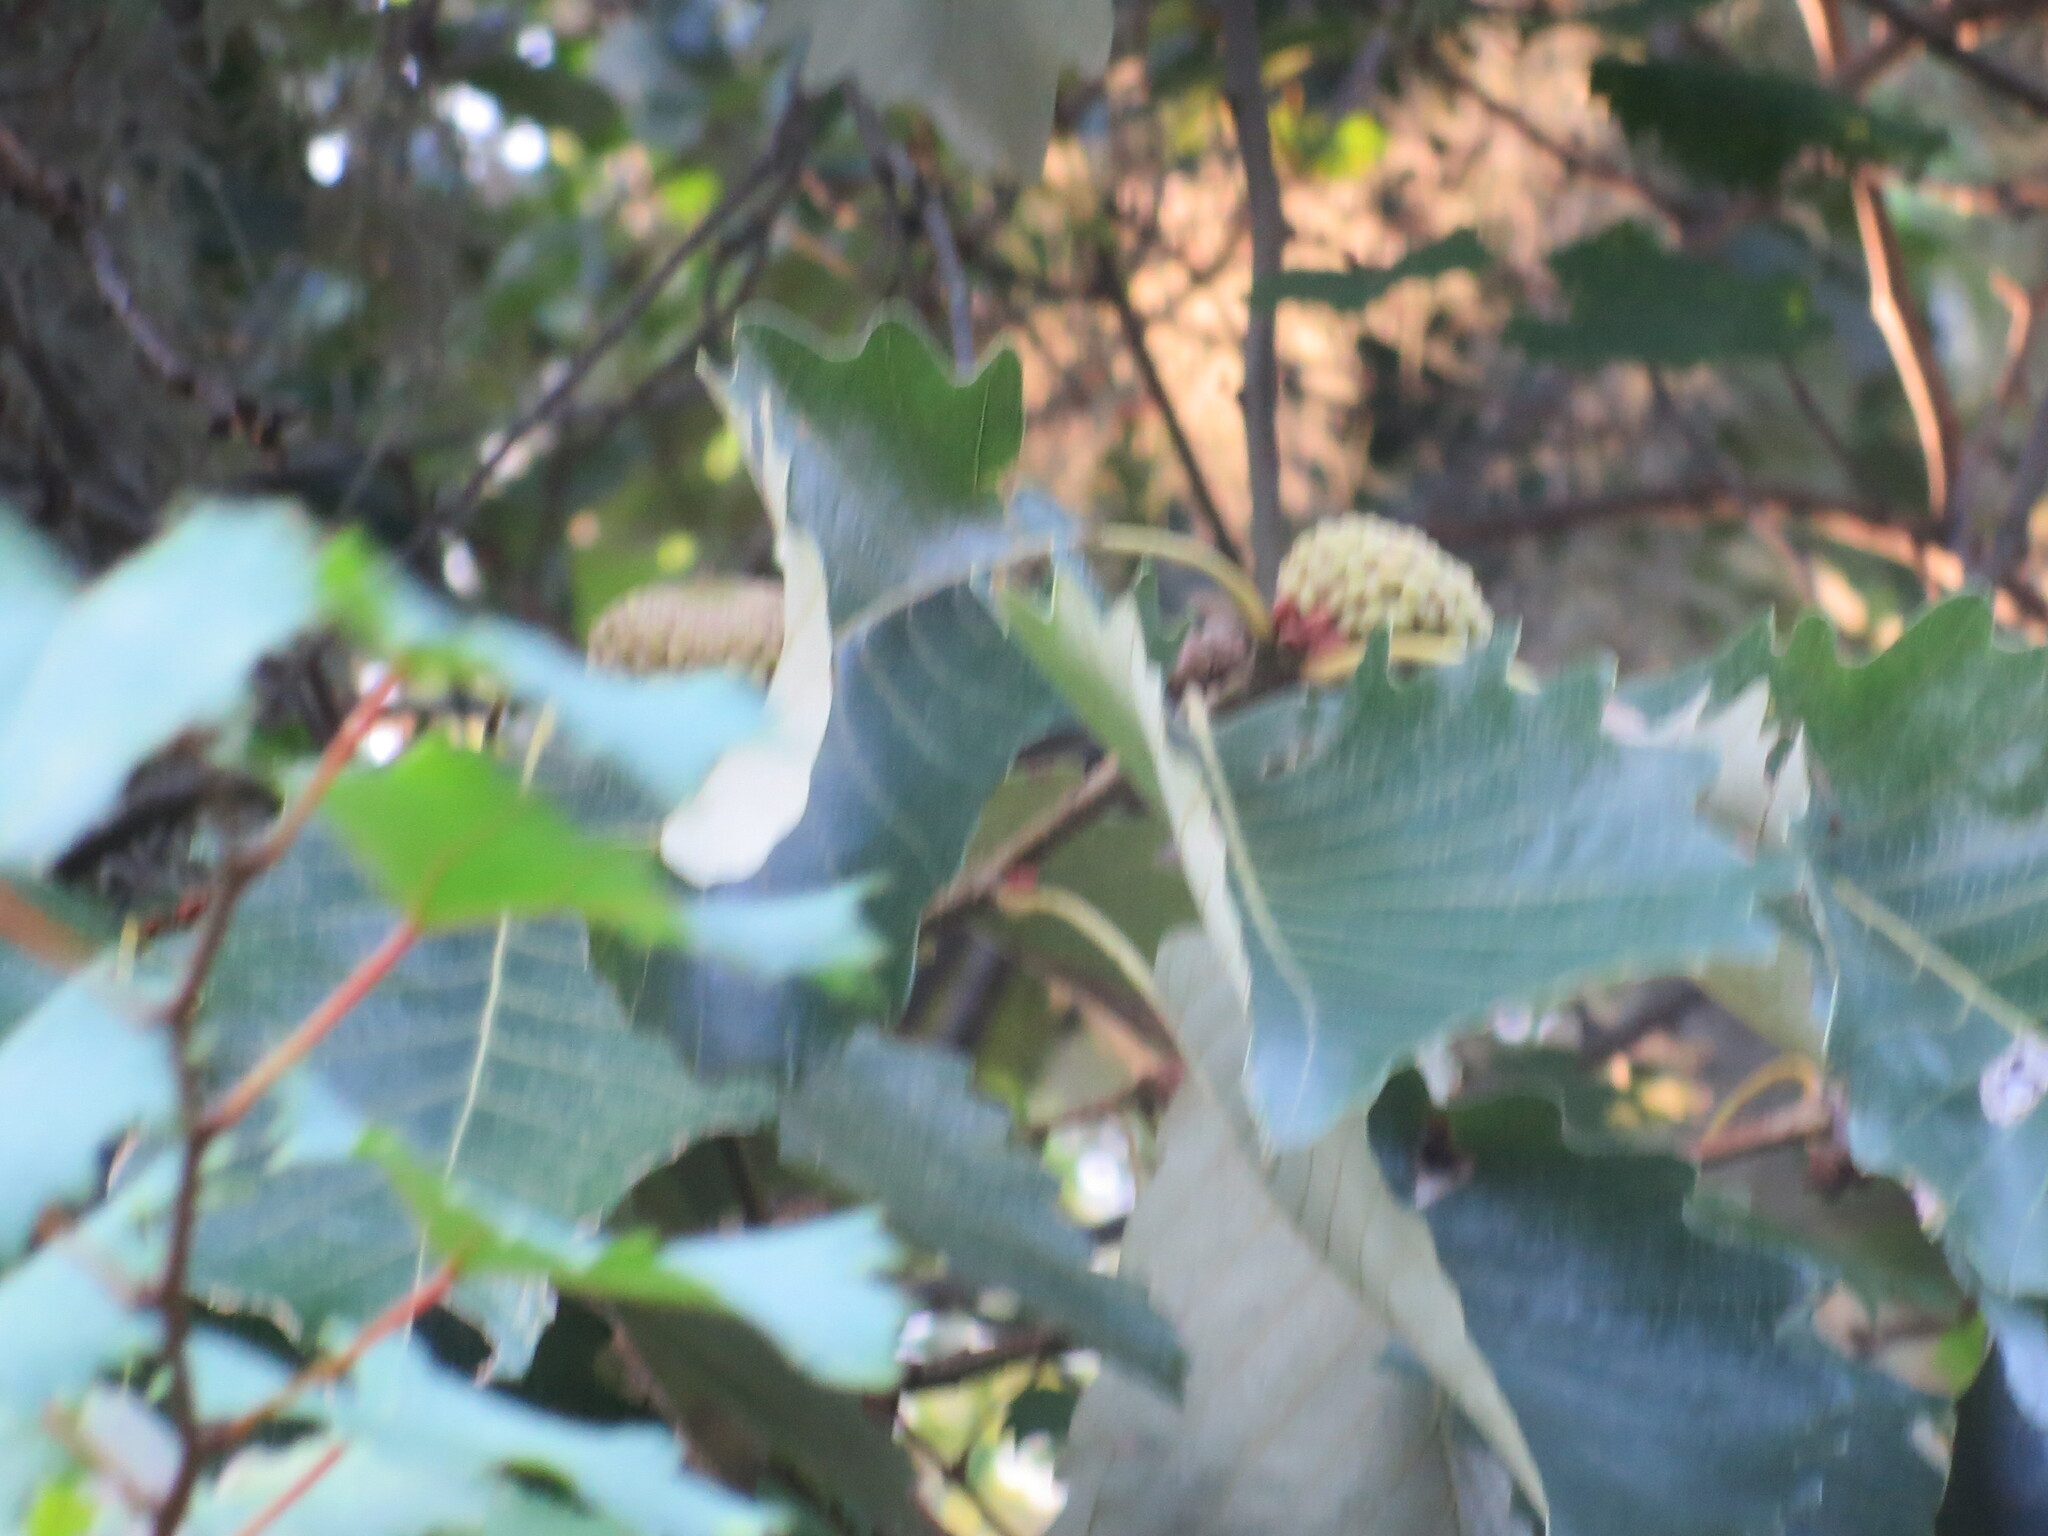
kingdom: Plantae
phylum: Tracheophyta
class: Magnoliopsida
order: Fagales
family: Fagaceae
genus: Quercus
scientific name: Quercus michauxii
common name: Swamp chestnut oak
